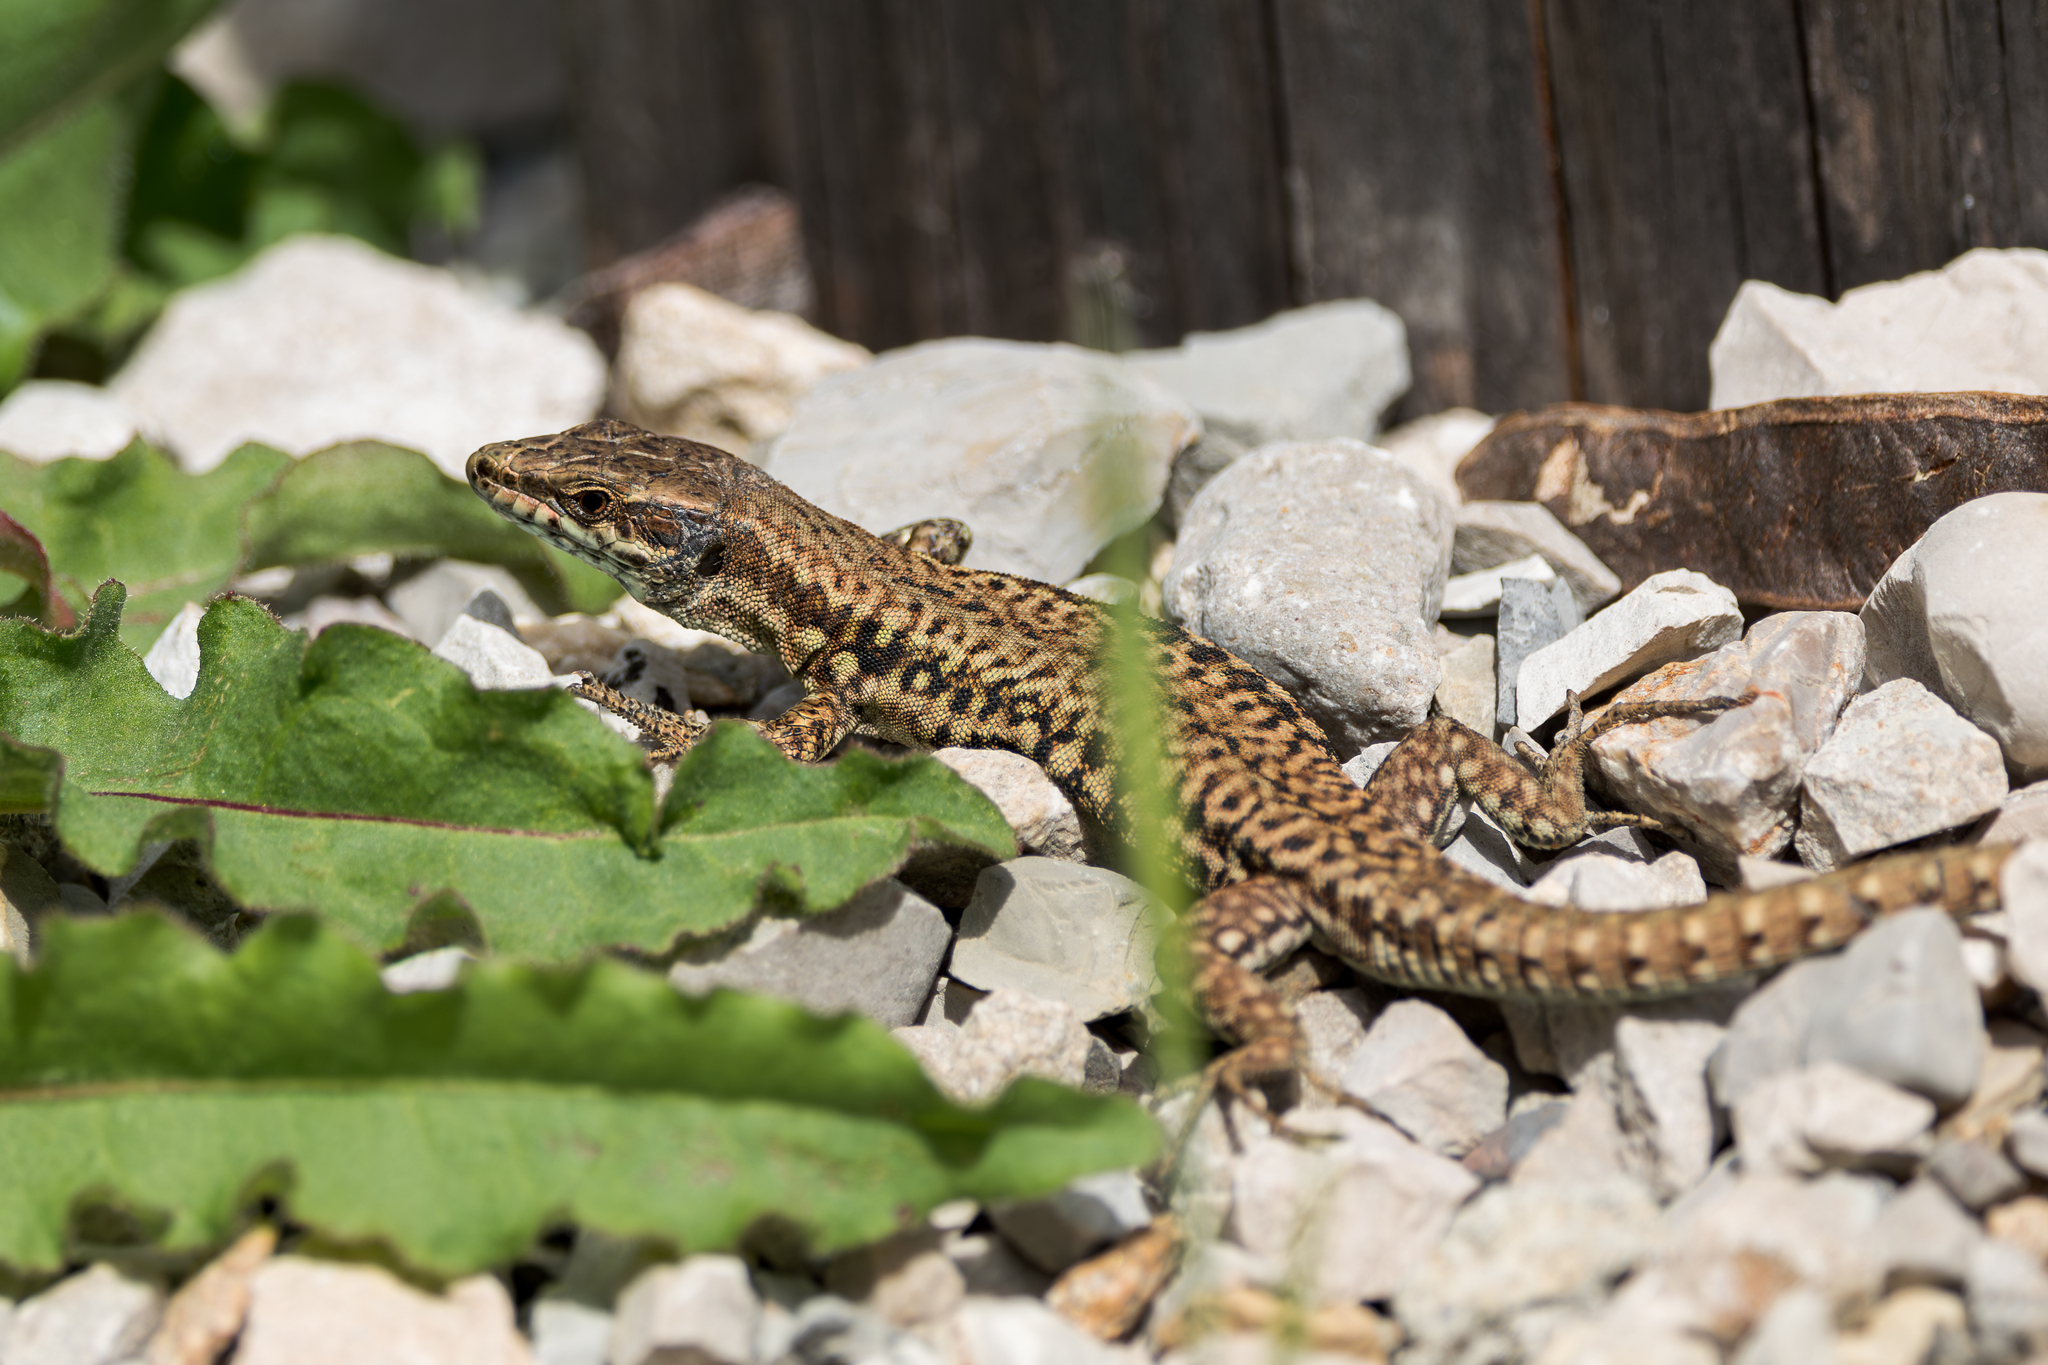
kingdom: Animalia
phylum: Chordata
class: Squamata
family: Lacertidae
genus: Podarcis
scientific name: Podarcis muralis
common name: Common wall lizard
